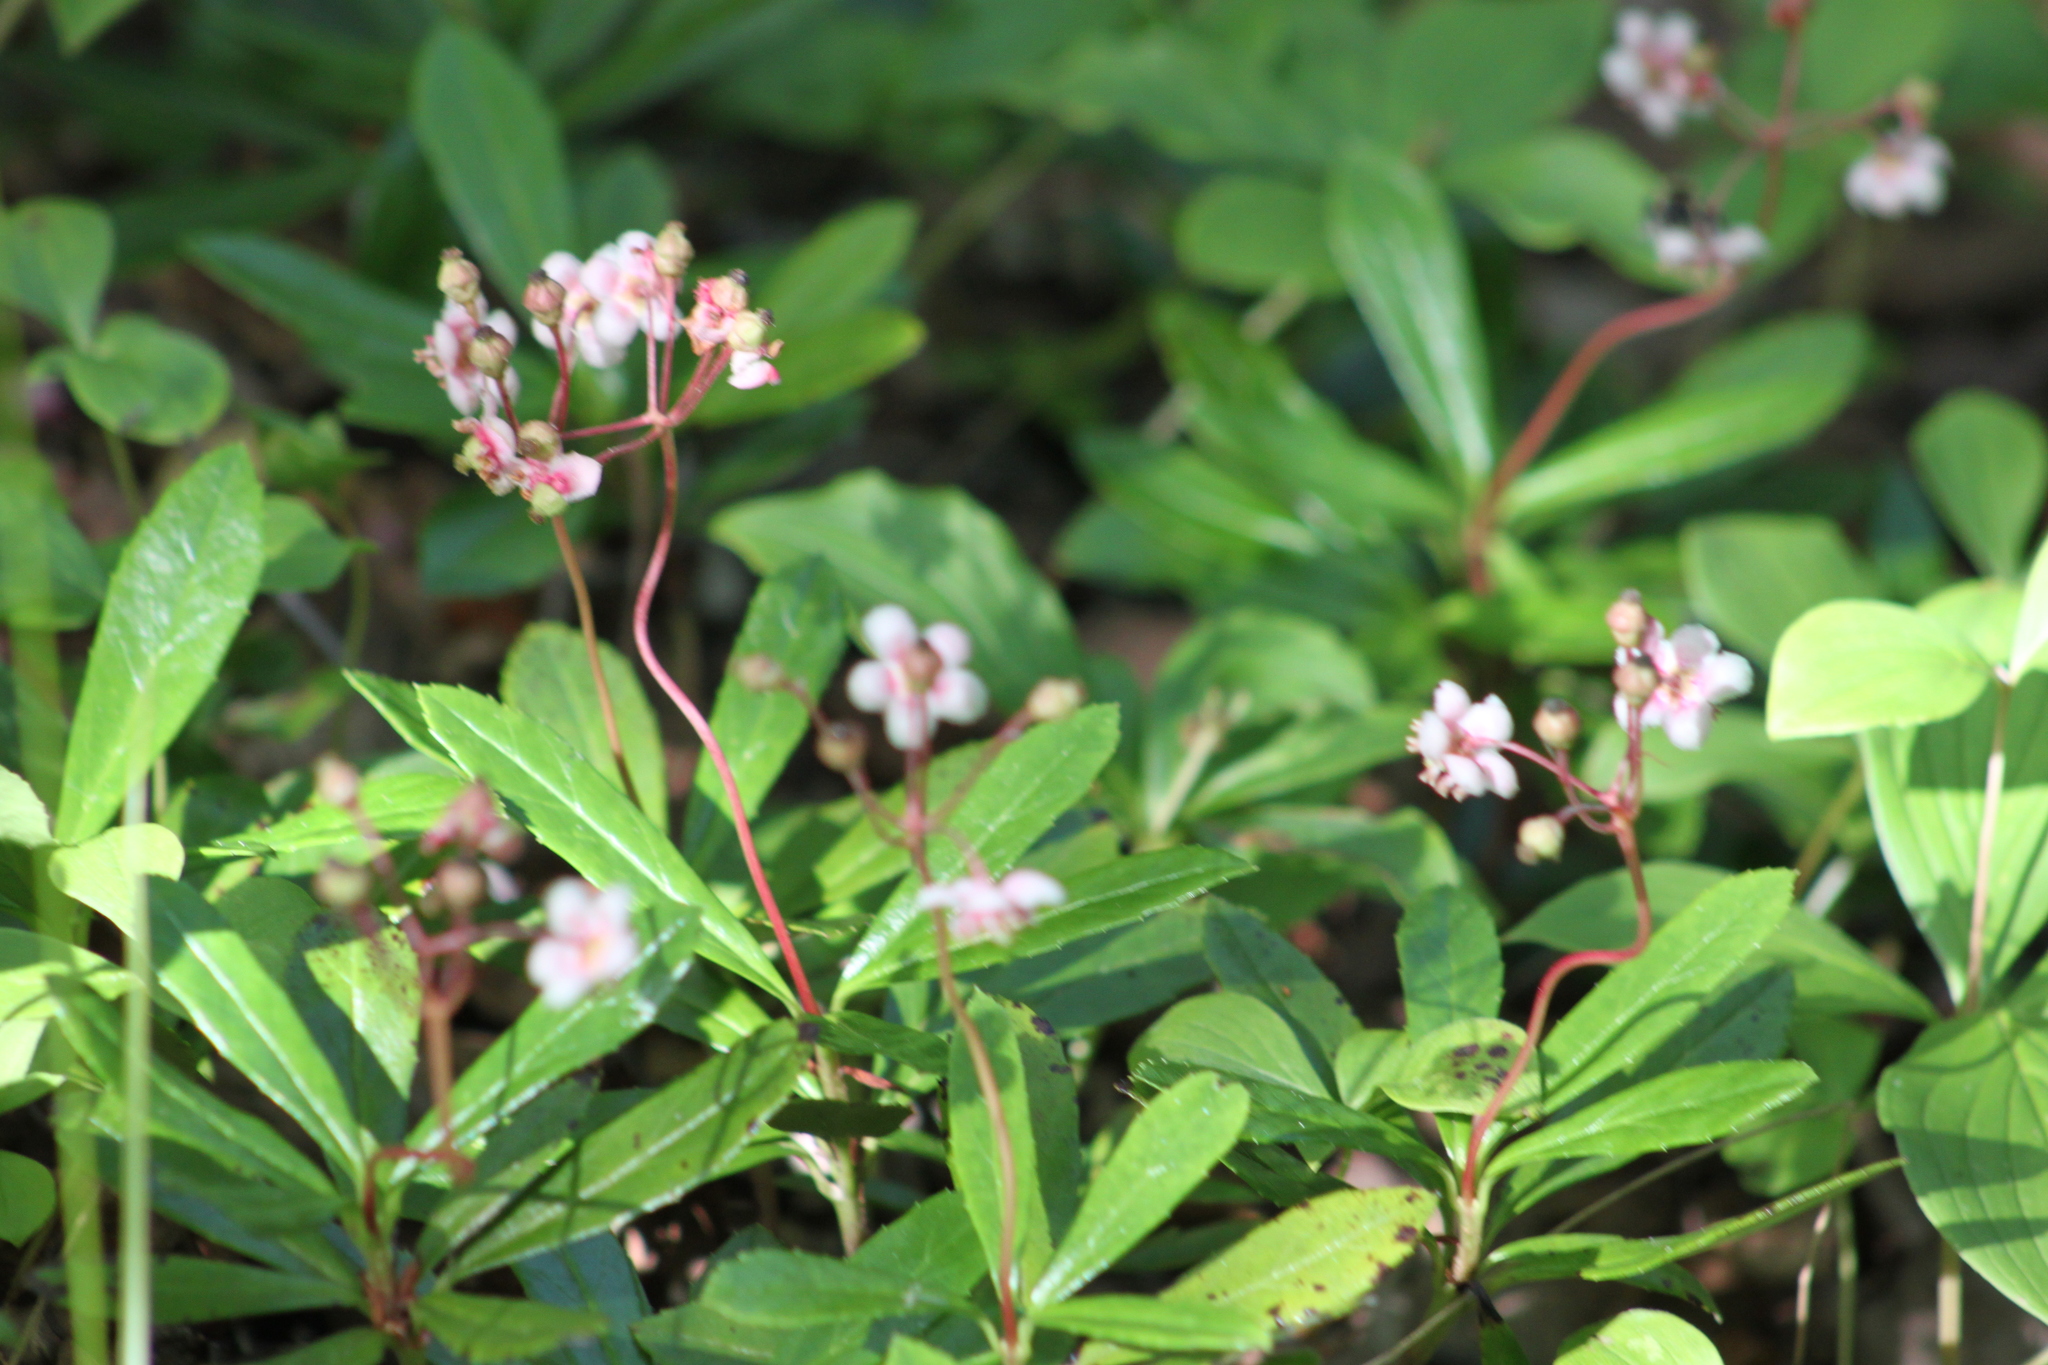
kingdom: Plantae
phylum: Tracheophyta
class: Magnoliopsida
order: Ericales
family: Ericaceae
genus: Chimaphila
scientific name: Chimaphila umbellata
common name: Pipsissewa
